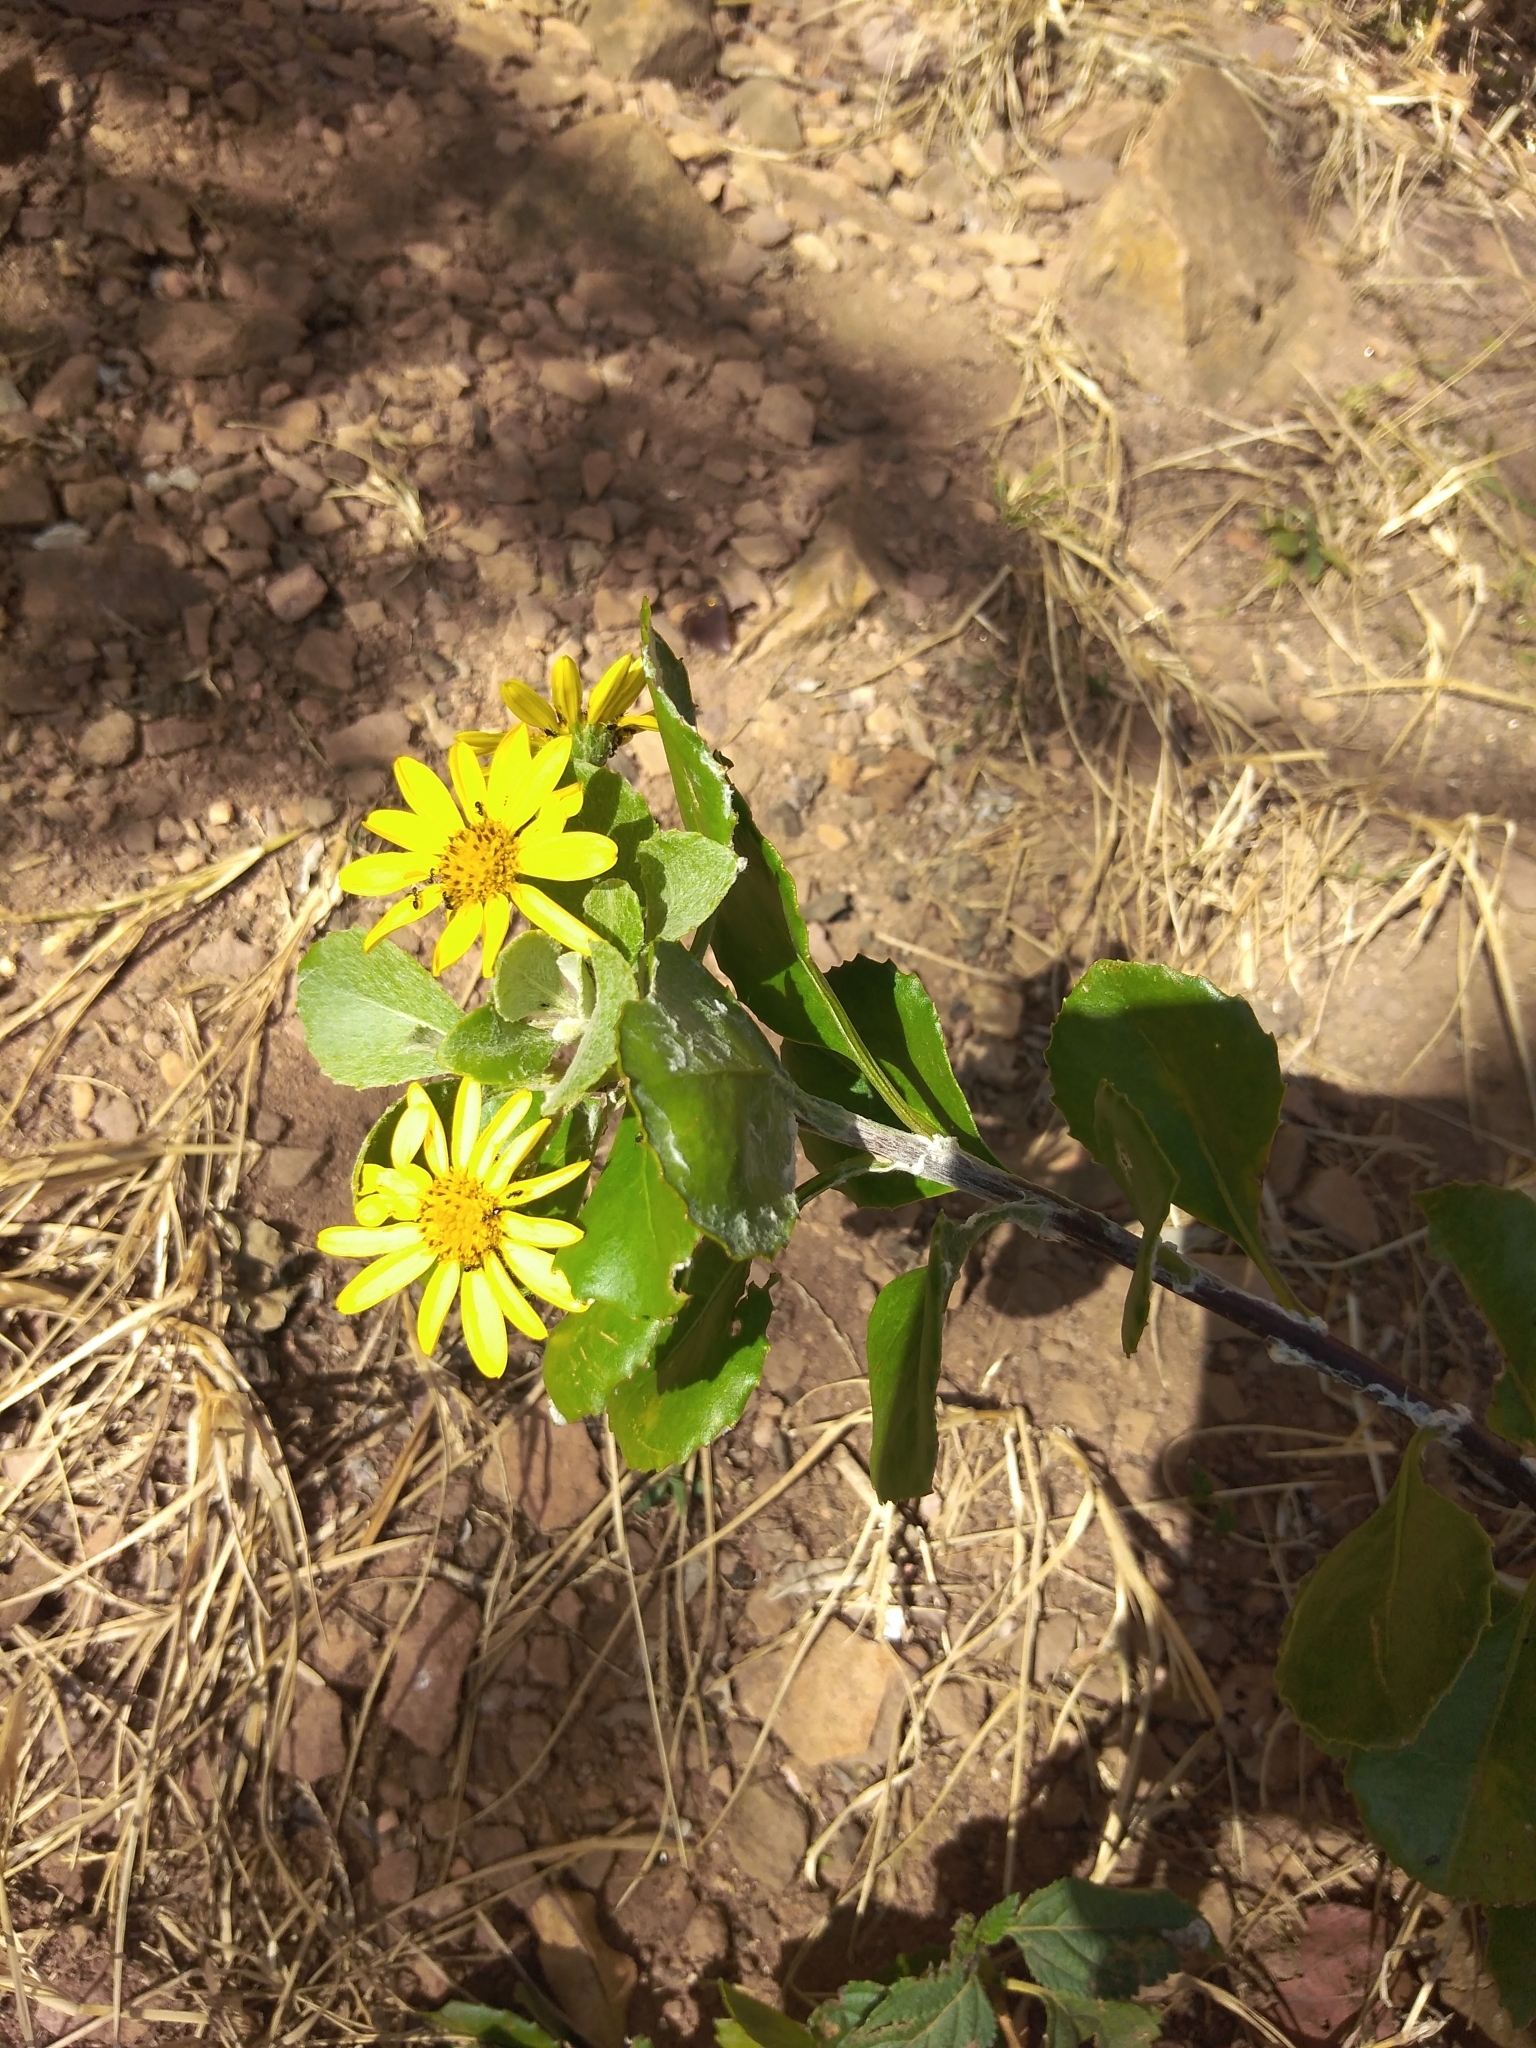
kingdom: Plantae
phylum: Tracheophyta
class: Magnoliopsida
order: Asterales
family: Asteraceae
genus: Osteospermum
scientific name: Osteospermum moniliferum
